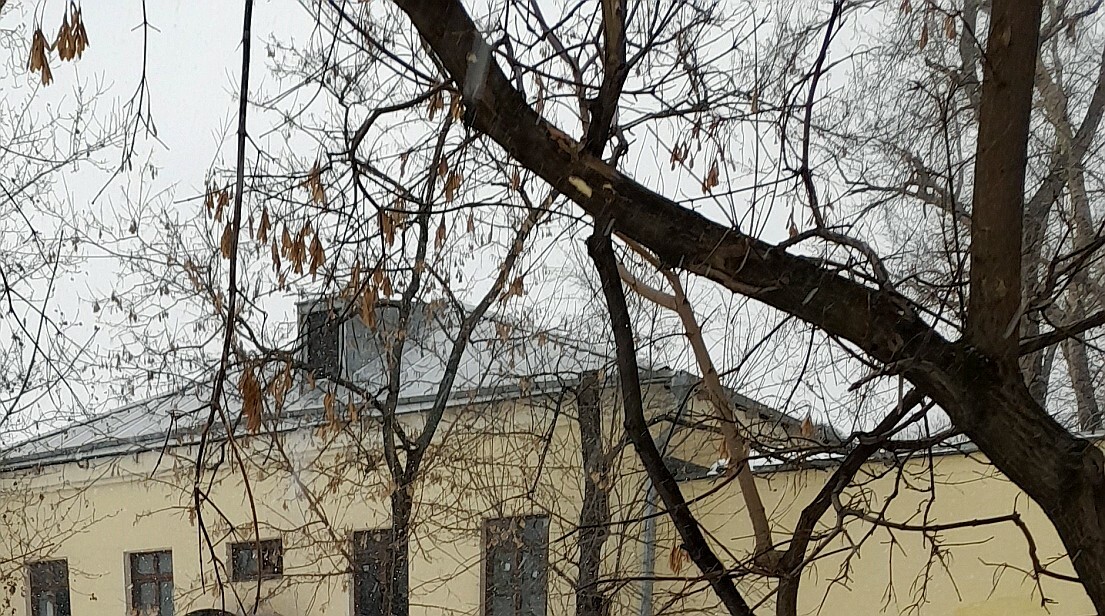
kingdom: Plantae
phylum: Tracheophyta
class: Magnoliopsida
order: Sapindales
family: Sapindaceae
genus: Acer
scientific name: Acer negundo
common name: Ashleaf maple
